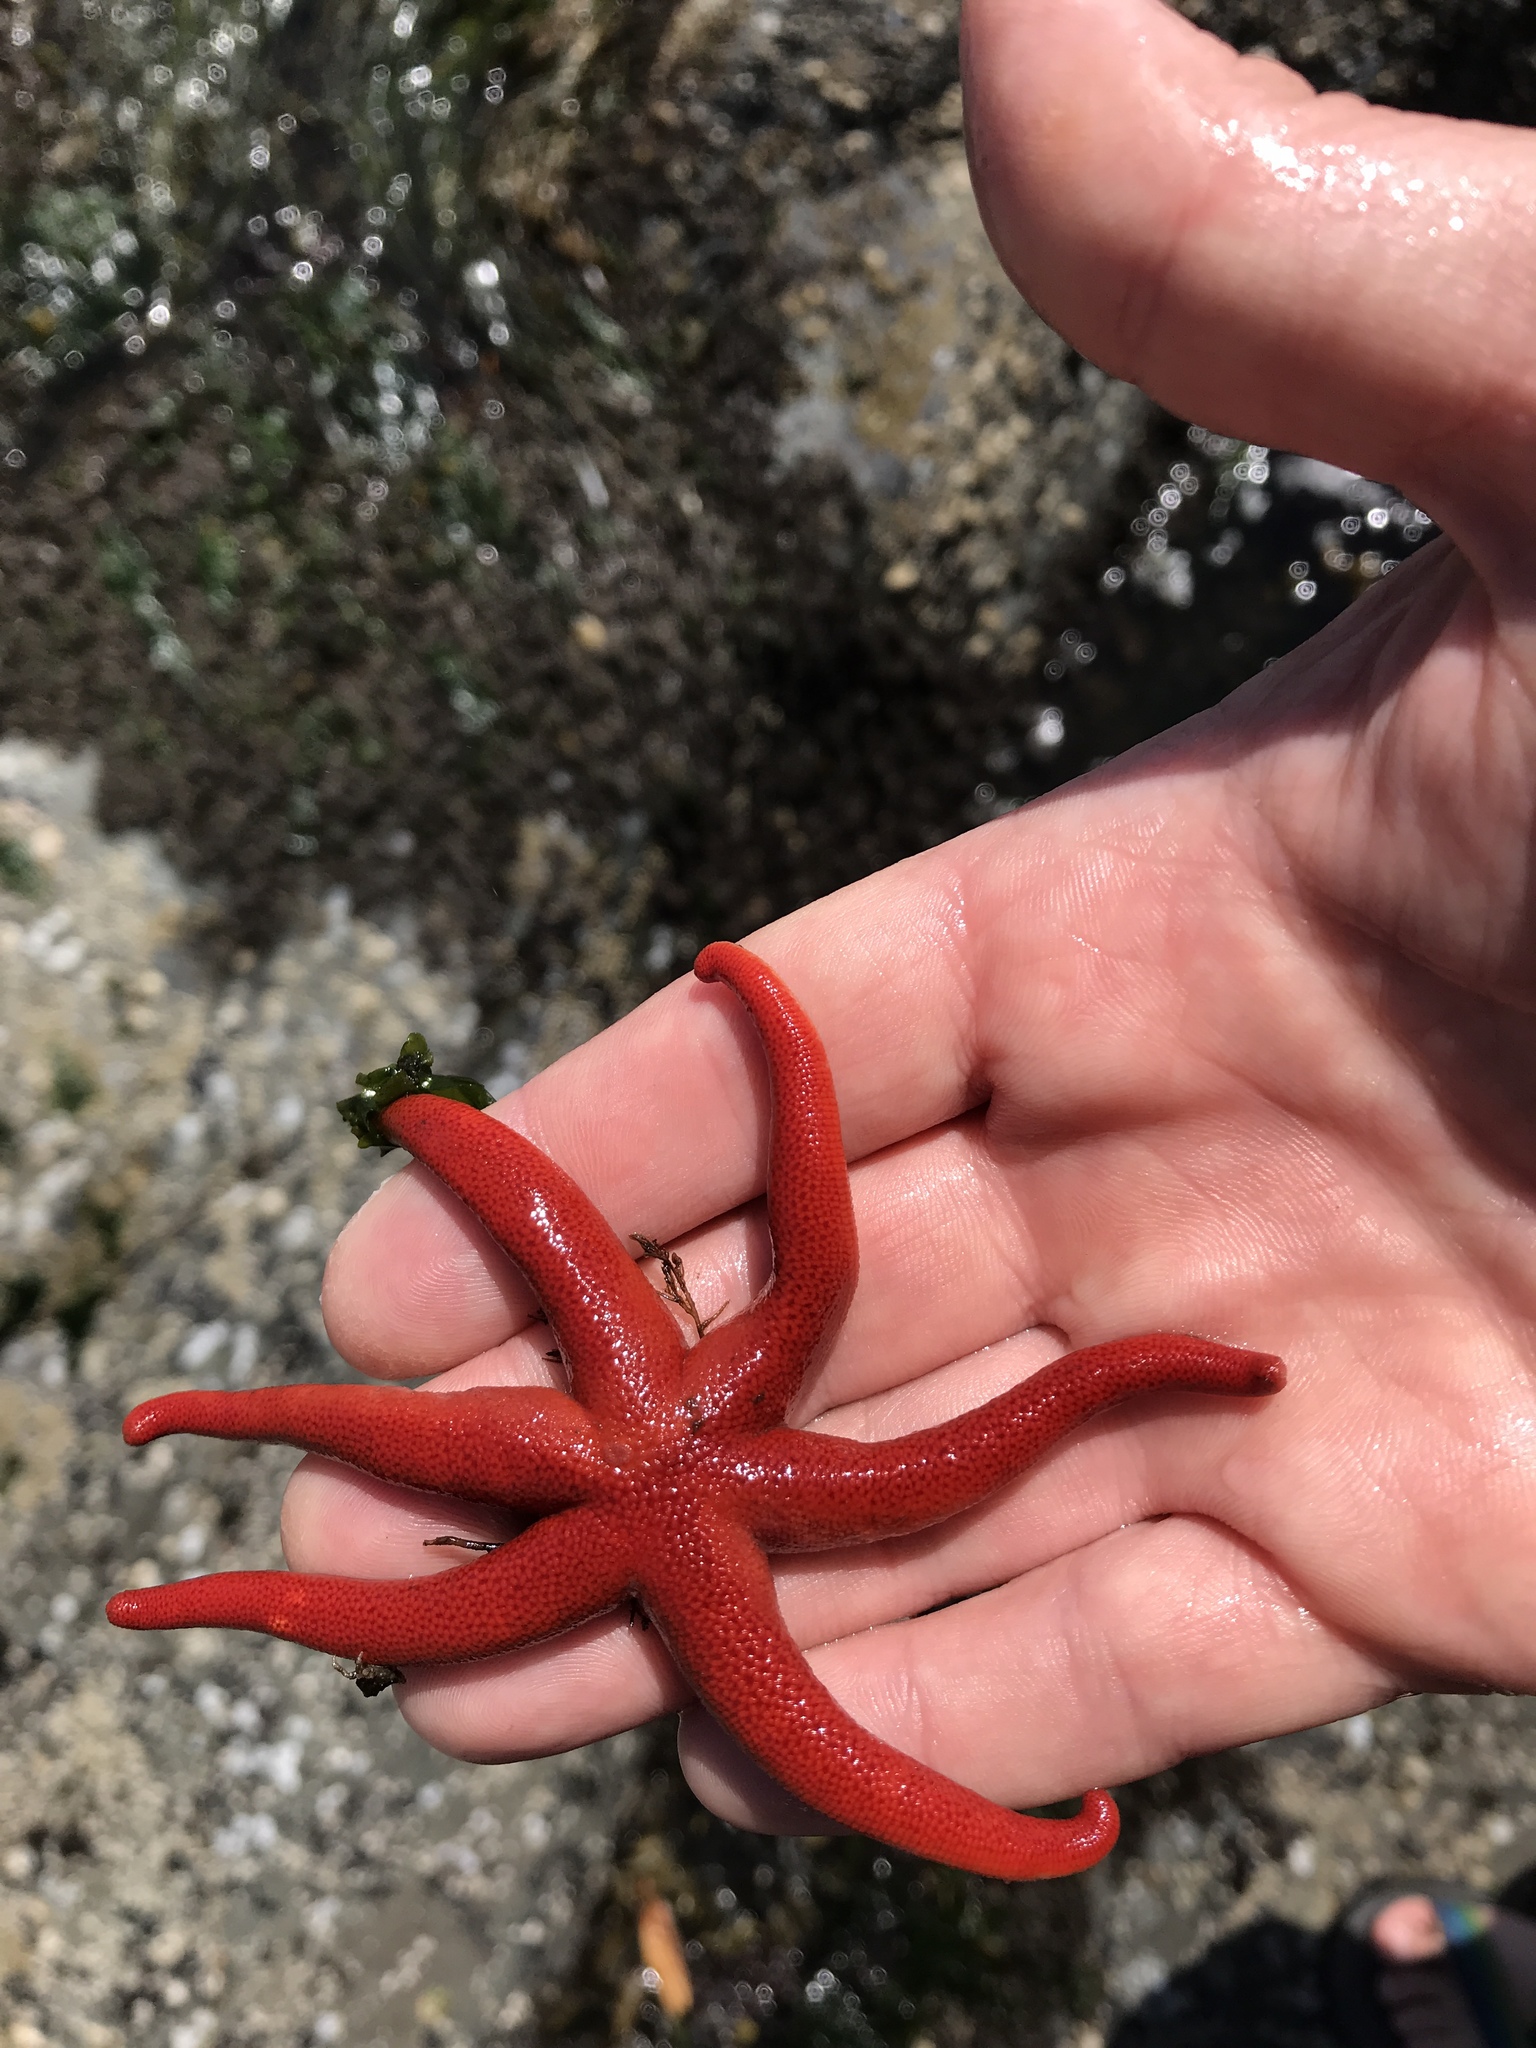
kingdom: Animalia
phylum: Echinodermata
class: Asteroidea
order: Spinulosida
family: Echinasteridae
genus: Henricia
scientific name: Henricia
